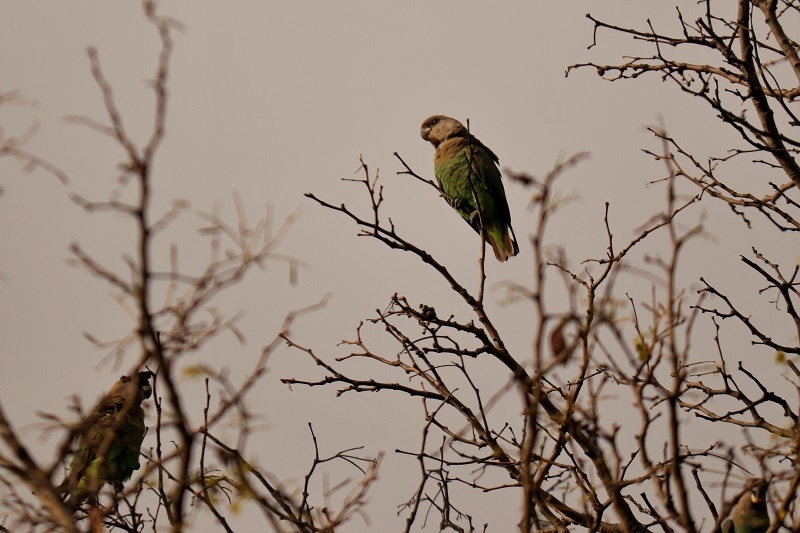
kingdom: Animalia
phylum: Chordata
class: Aves
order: Psittaciformes
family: Psittacidae
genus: Poicephalus
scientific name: Poicephalus cryptoxanthus
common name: Brown-headed parrot
